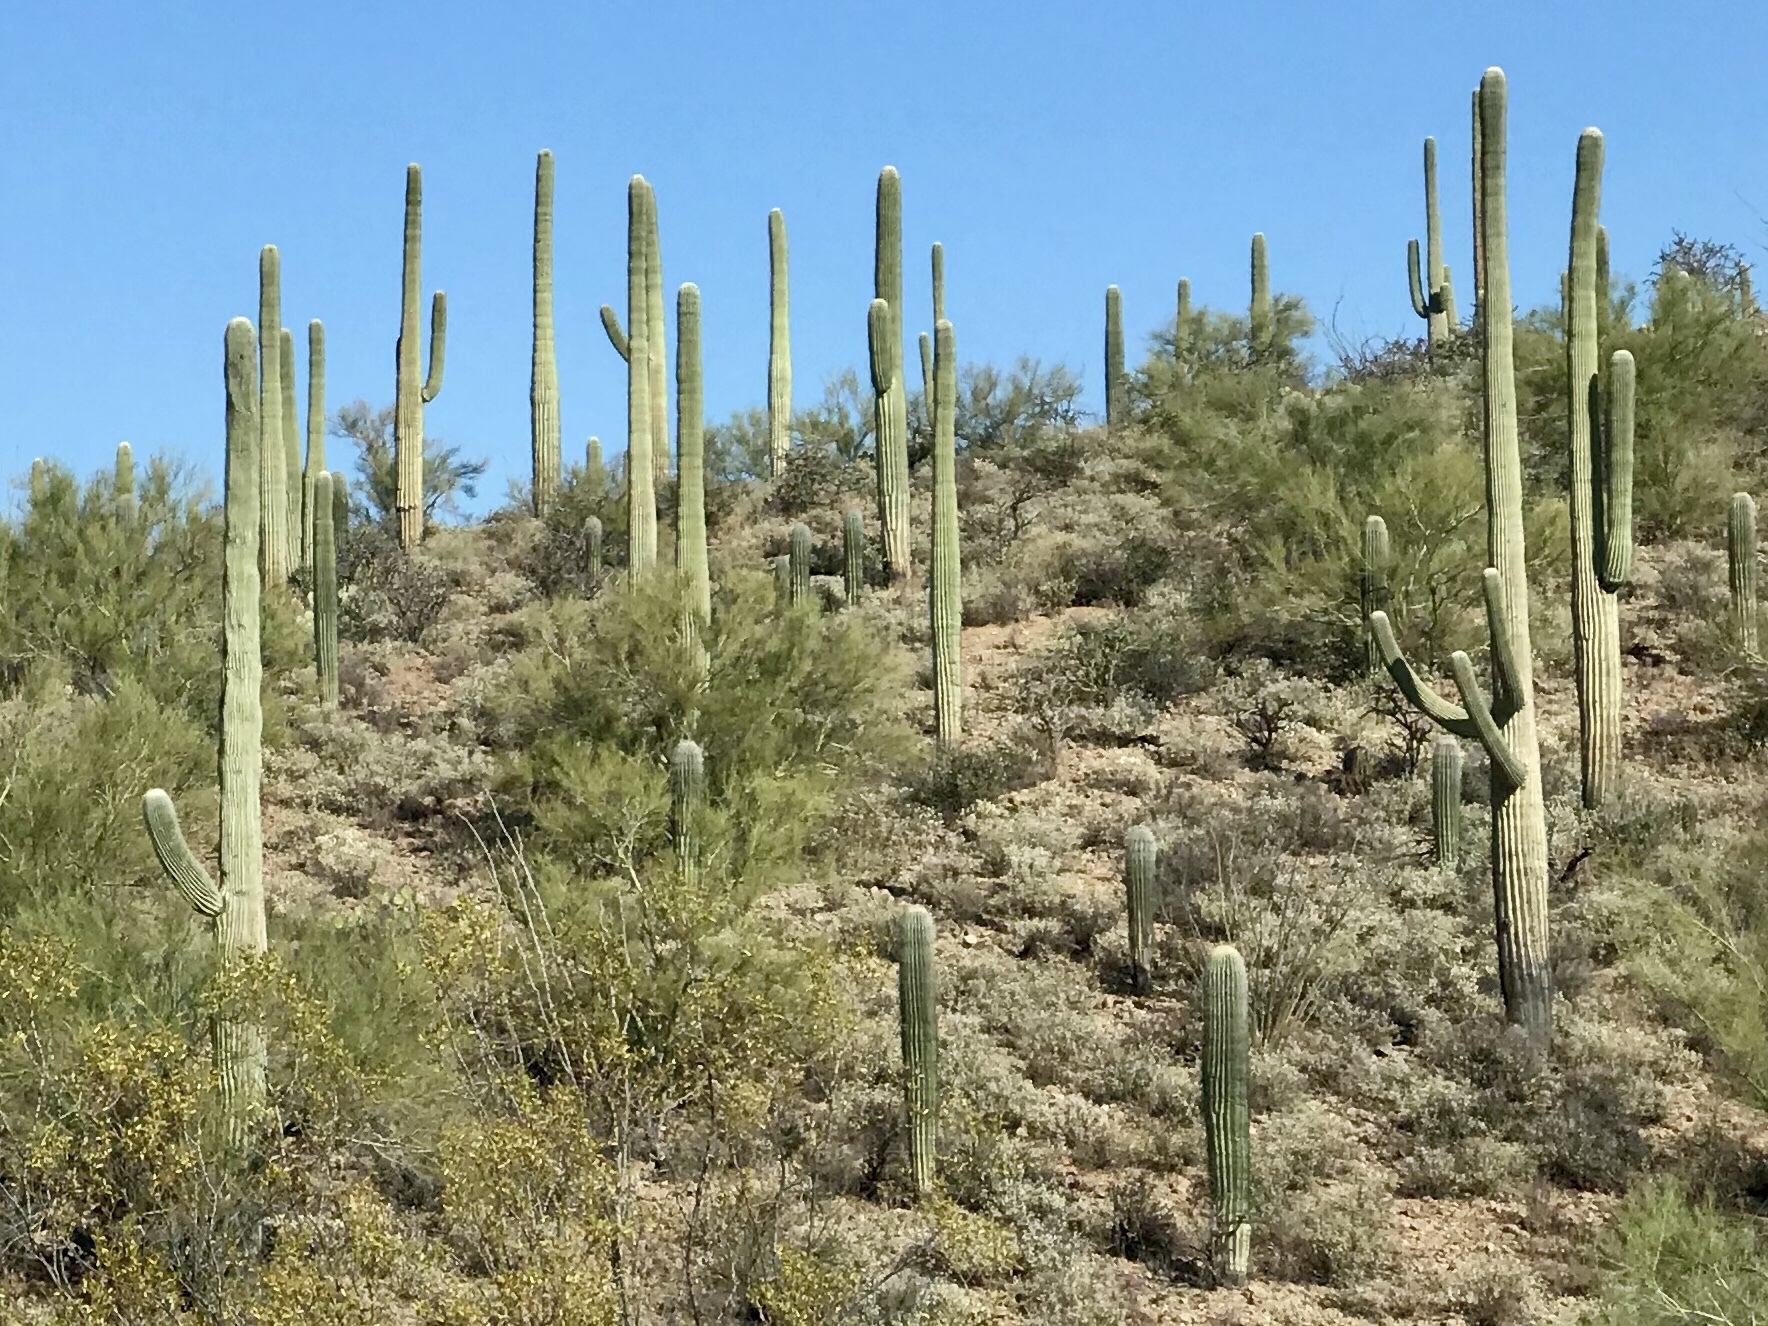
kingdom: Plantae
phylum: Tracheophyta
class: Magnoliopsida
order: Caryophyllales
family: Cactaceae
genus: Carnegiea
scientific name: Carnegiea gigantea
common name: Saguaro
